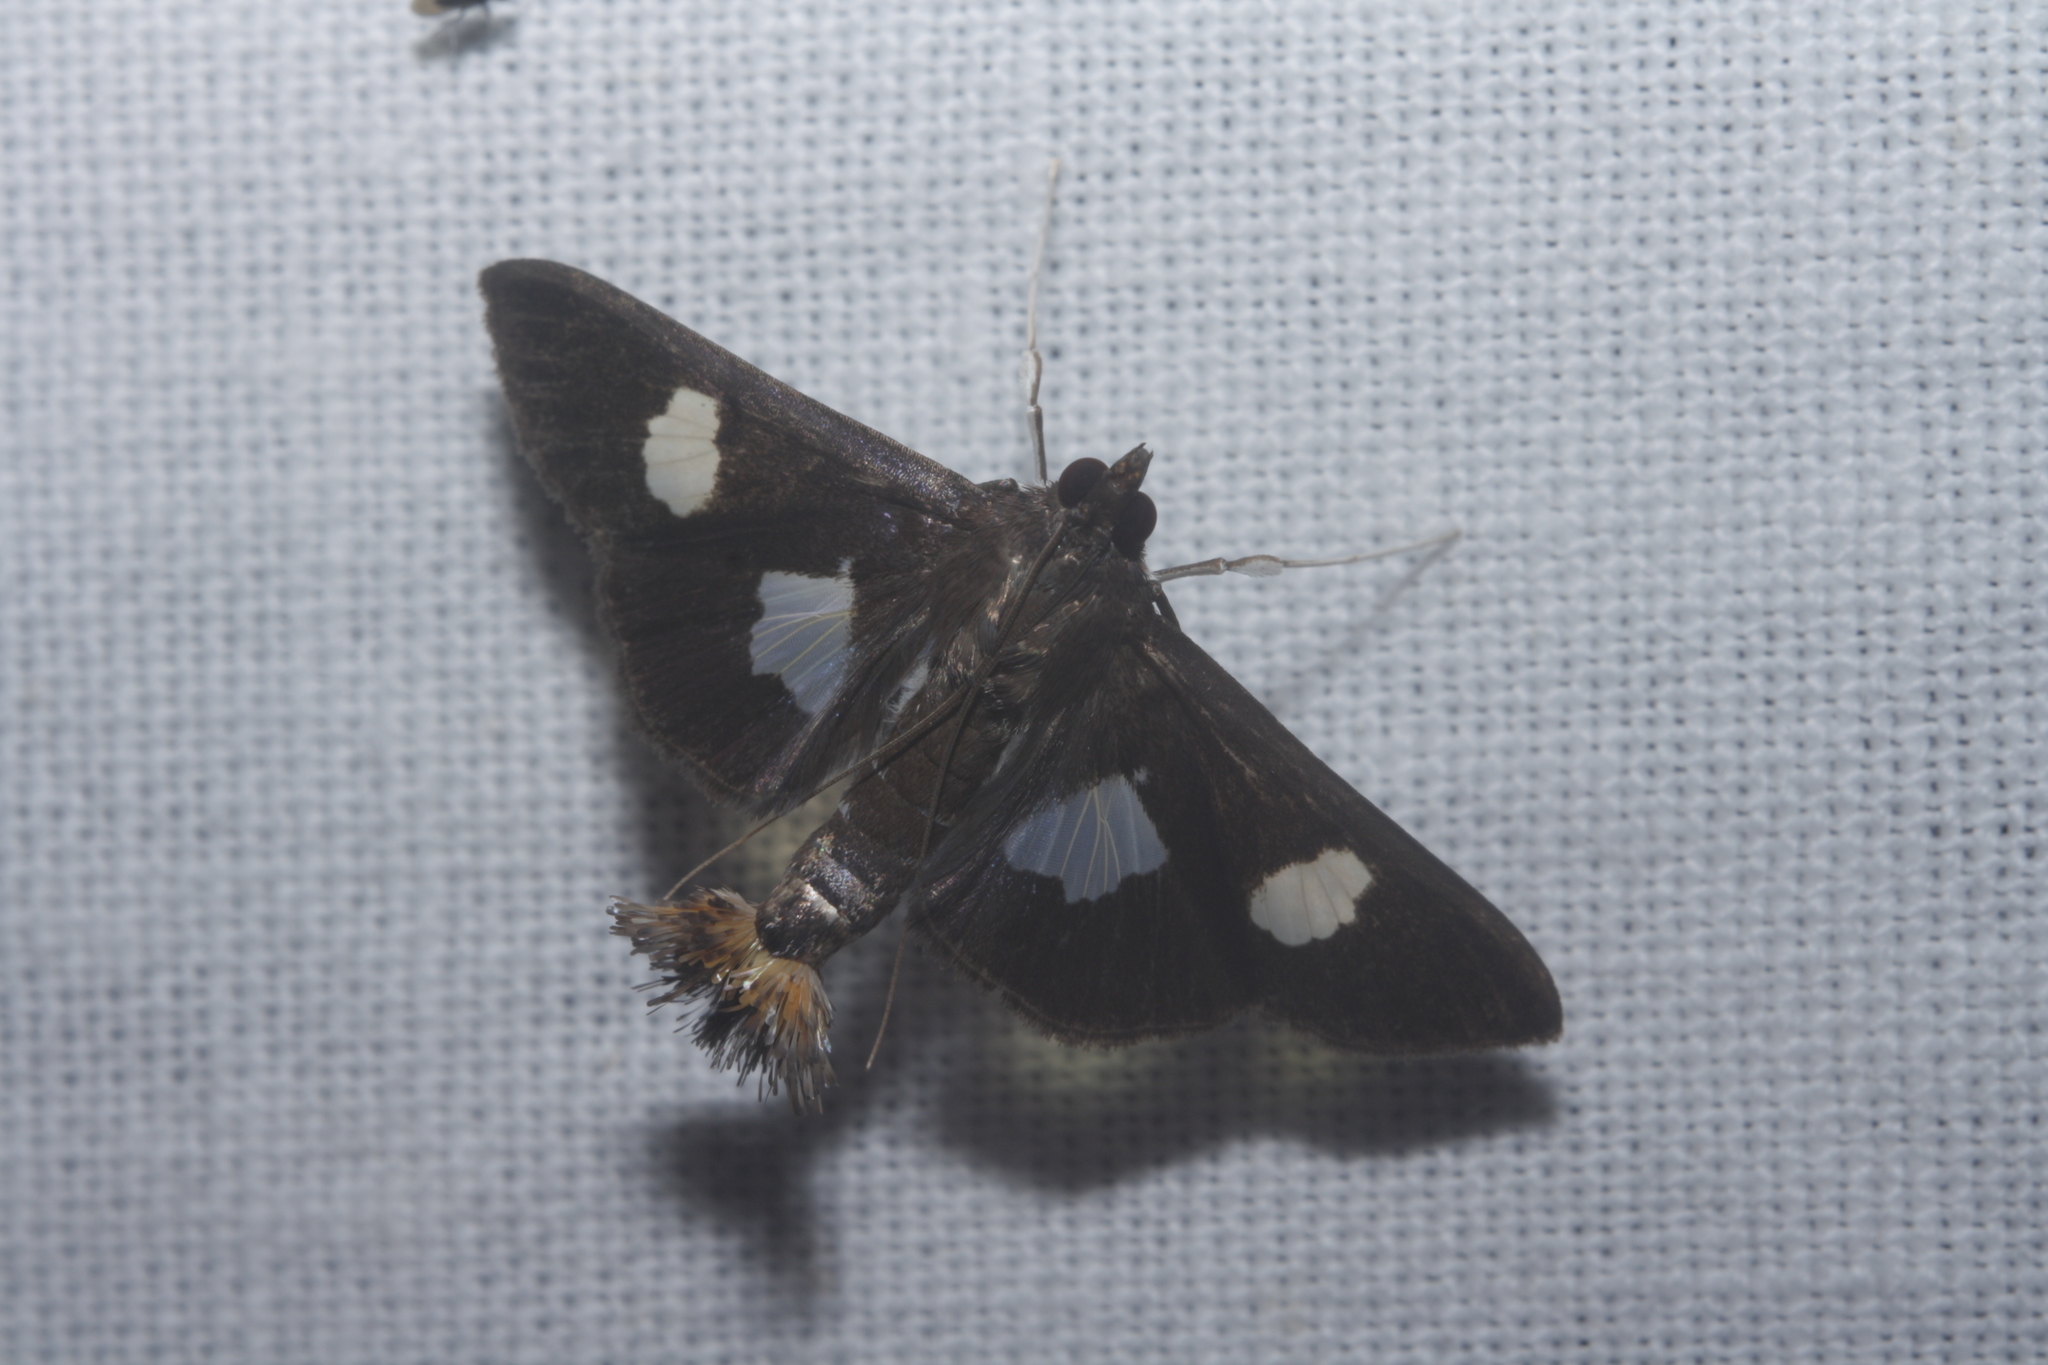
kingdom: Animalia
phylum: Arthropoda
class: Insecta
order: Lepidoptera
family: Crambidae
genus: Diaphania
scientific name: Diaphania exclusalis
